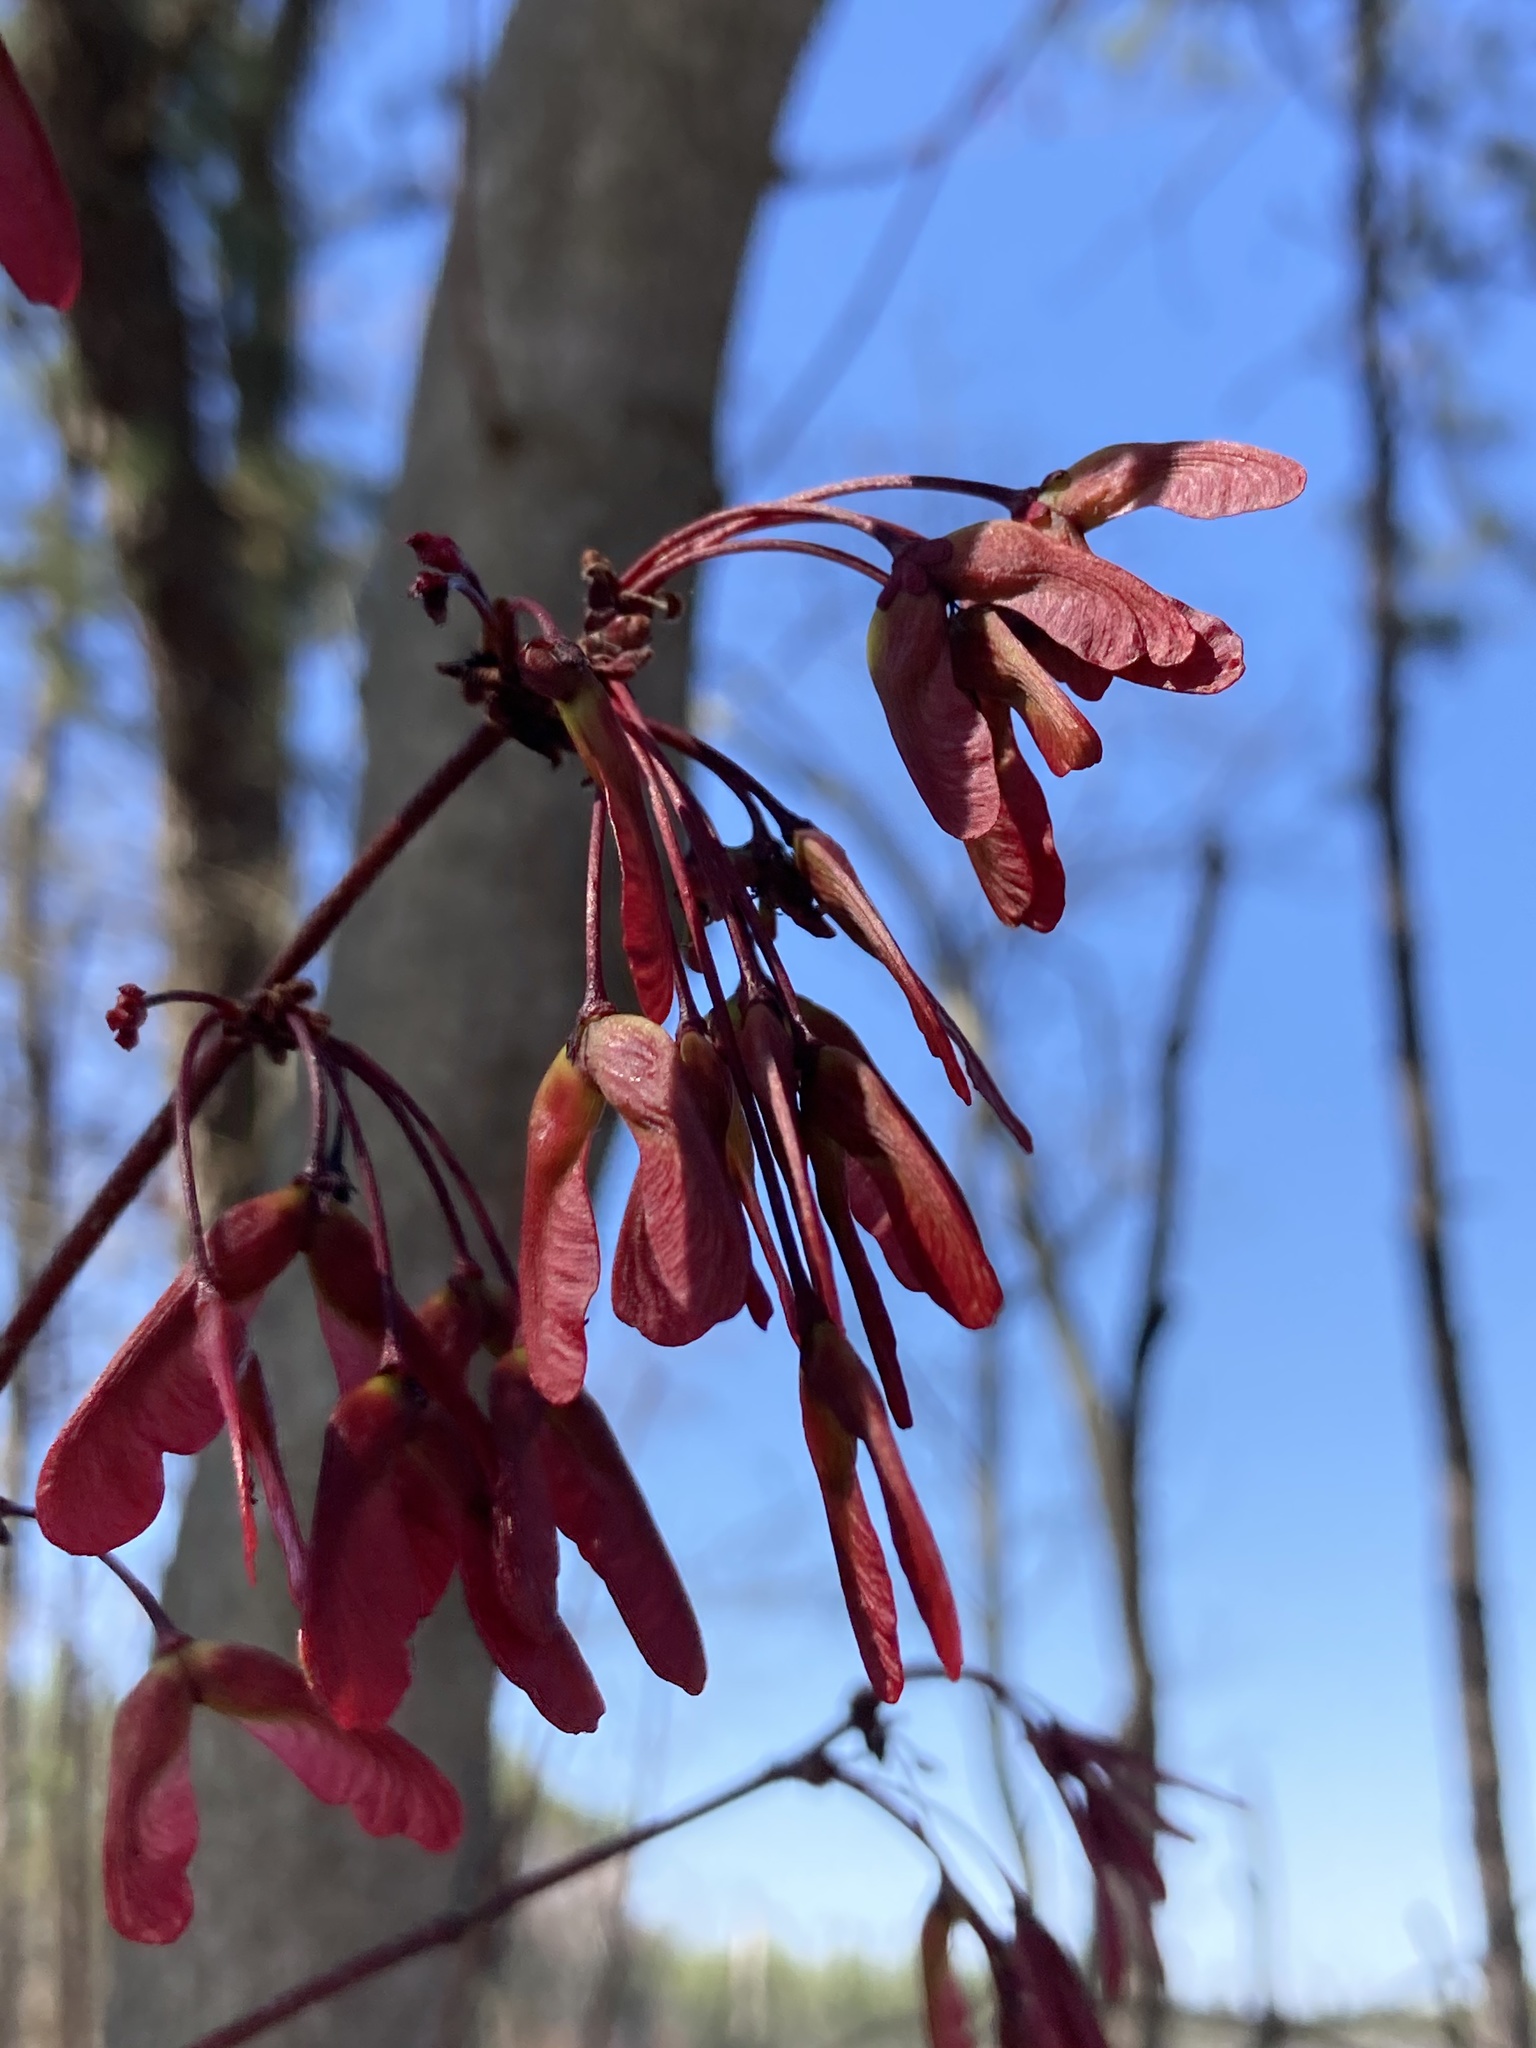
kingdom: Plantae
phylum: Tracheophyta
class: Magnoliopsida
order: Sapindales
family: Sapindaceae
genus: Acer
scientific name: Acer rubrum
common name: Red maple
